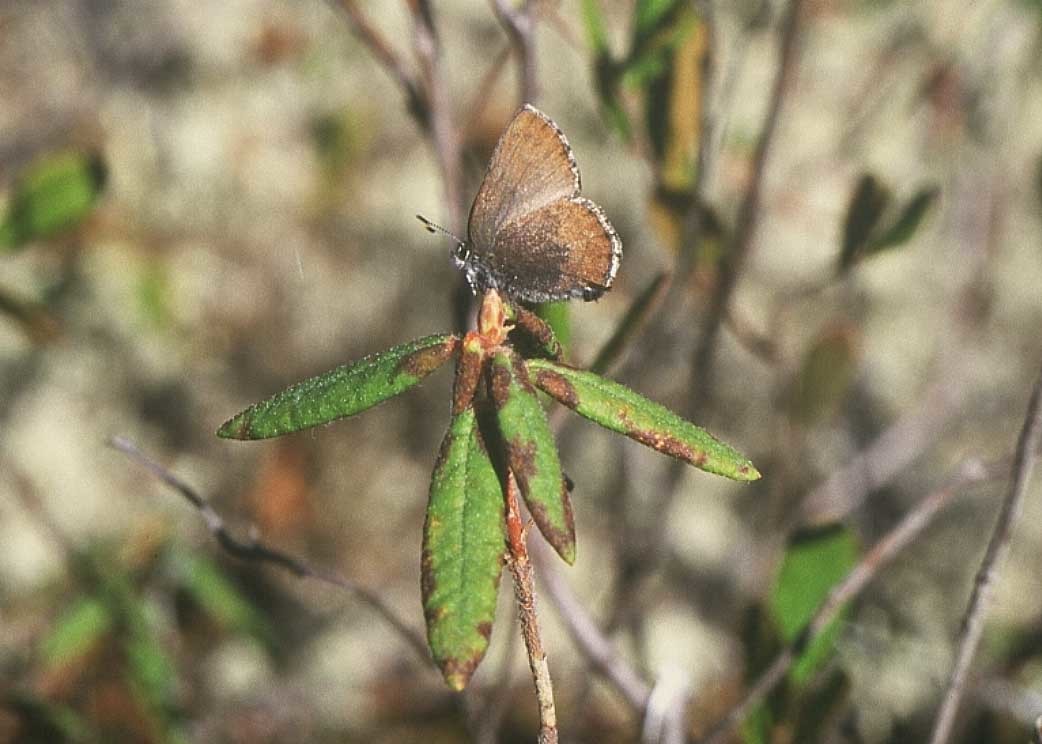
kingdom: Animalia
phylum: Arthropoda
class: Insecta
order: Lepidoptera
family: Lycaenidae
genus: Thecla
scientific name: Thecla iroides
